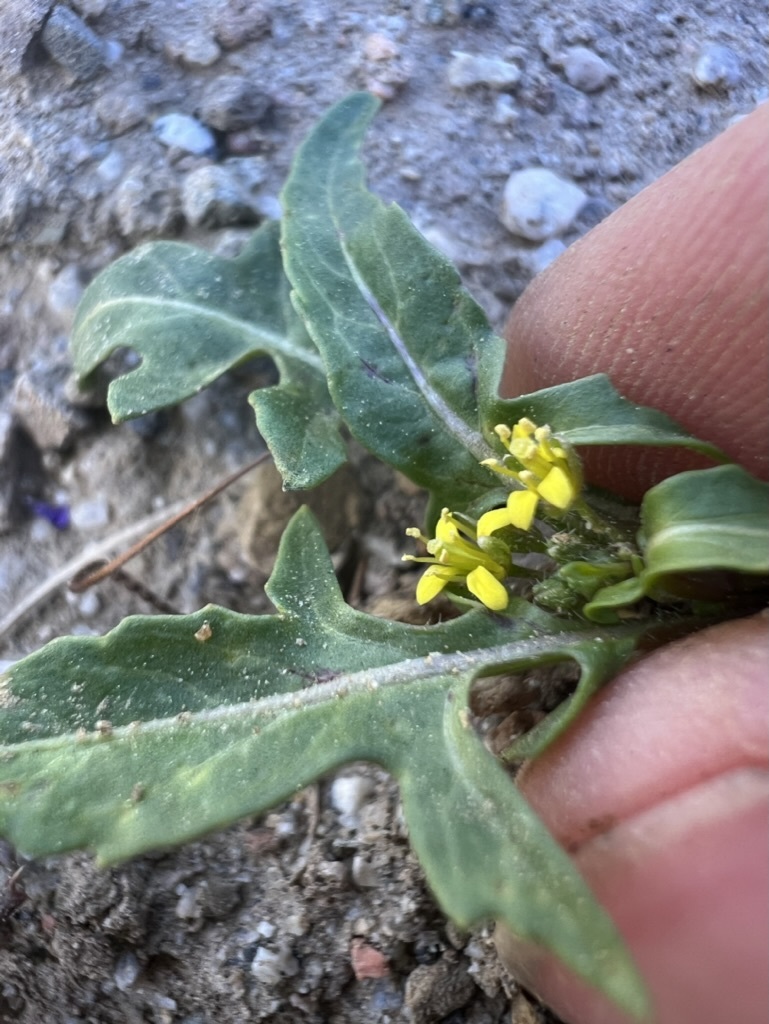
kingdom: Plantae
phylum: Tracheophyta
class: Magnoliopsida
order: Brassicales
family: Brassicaceae
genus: Sisymbrium
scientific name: Sisymbrium irio
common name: London rocket
